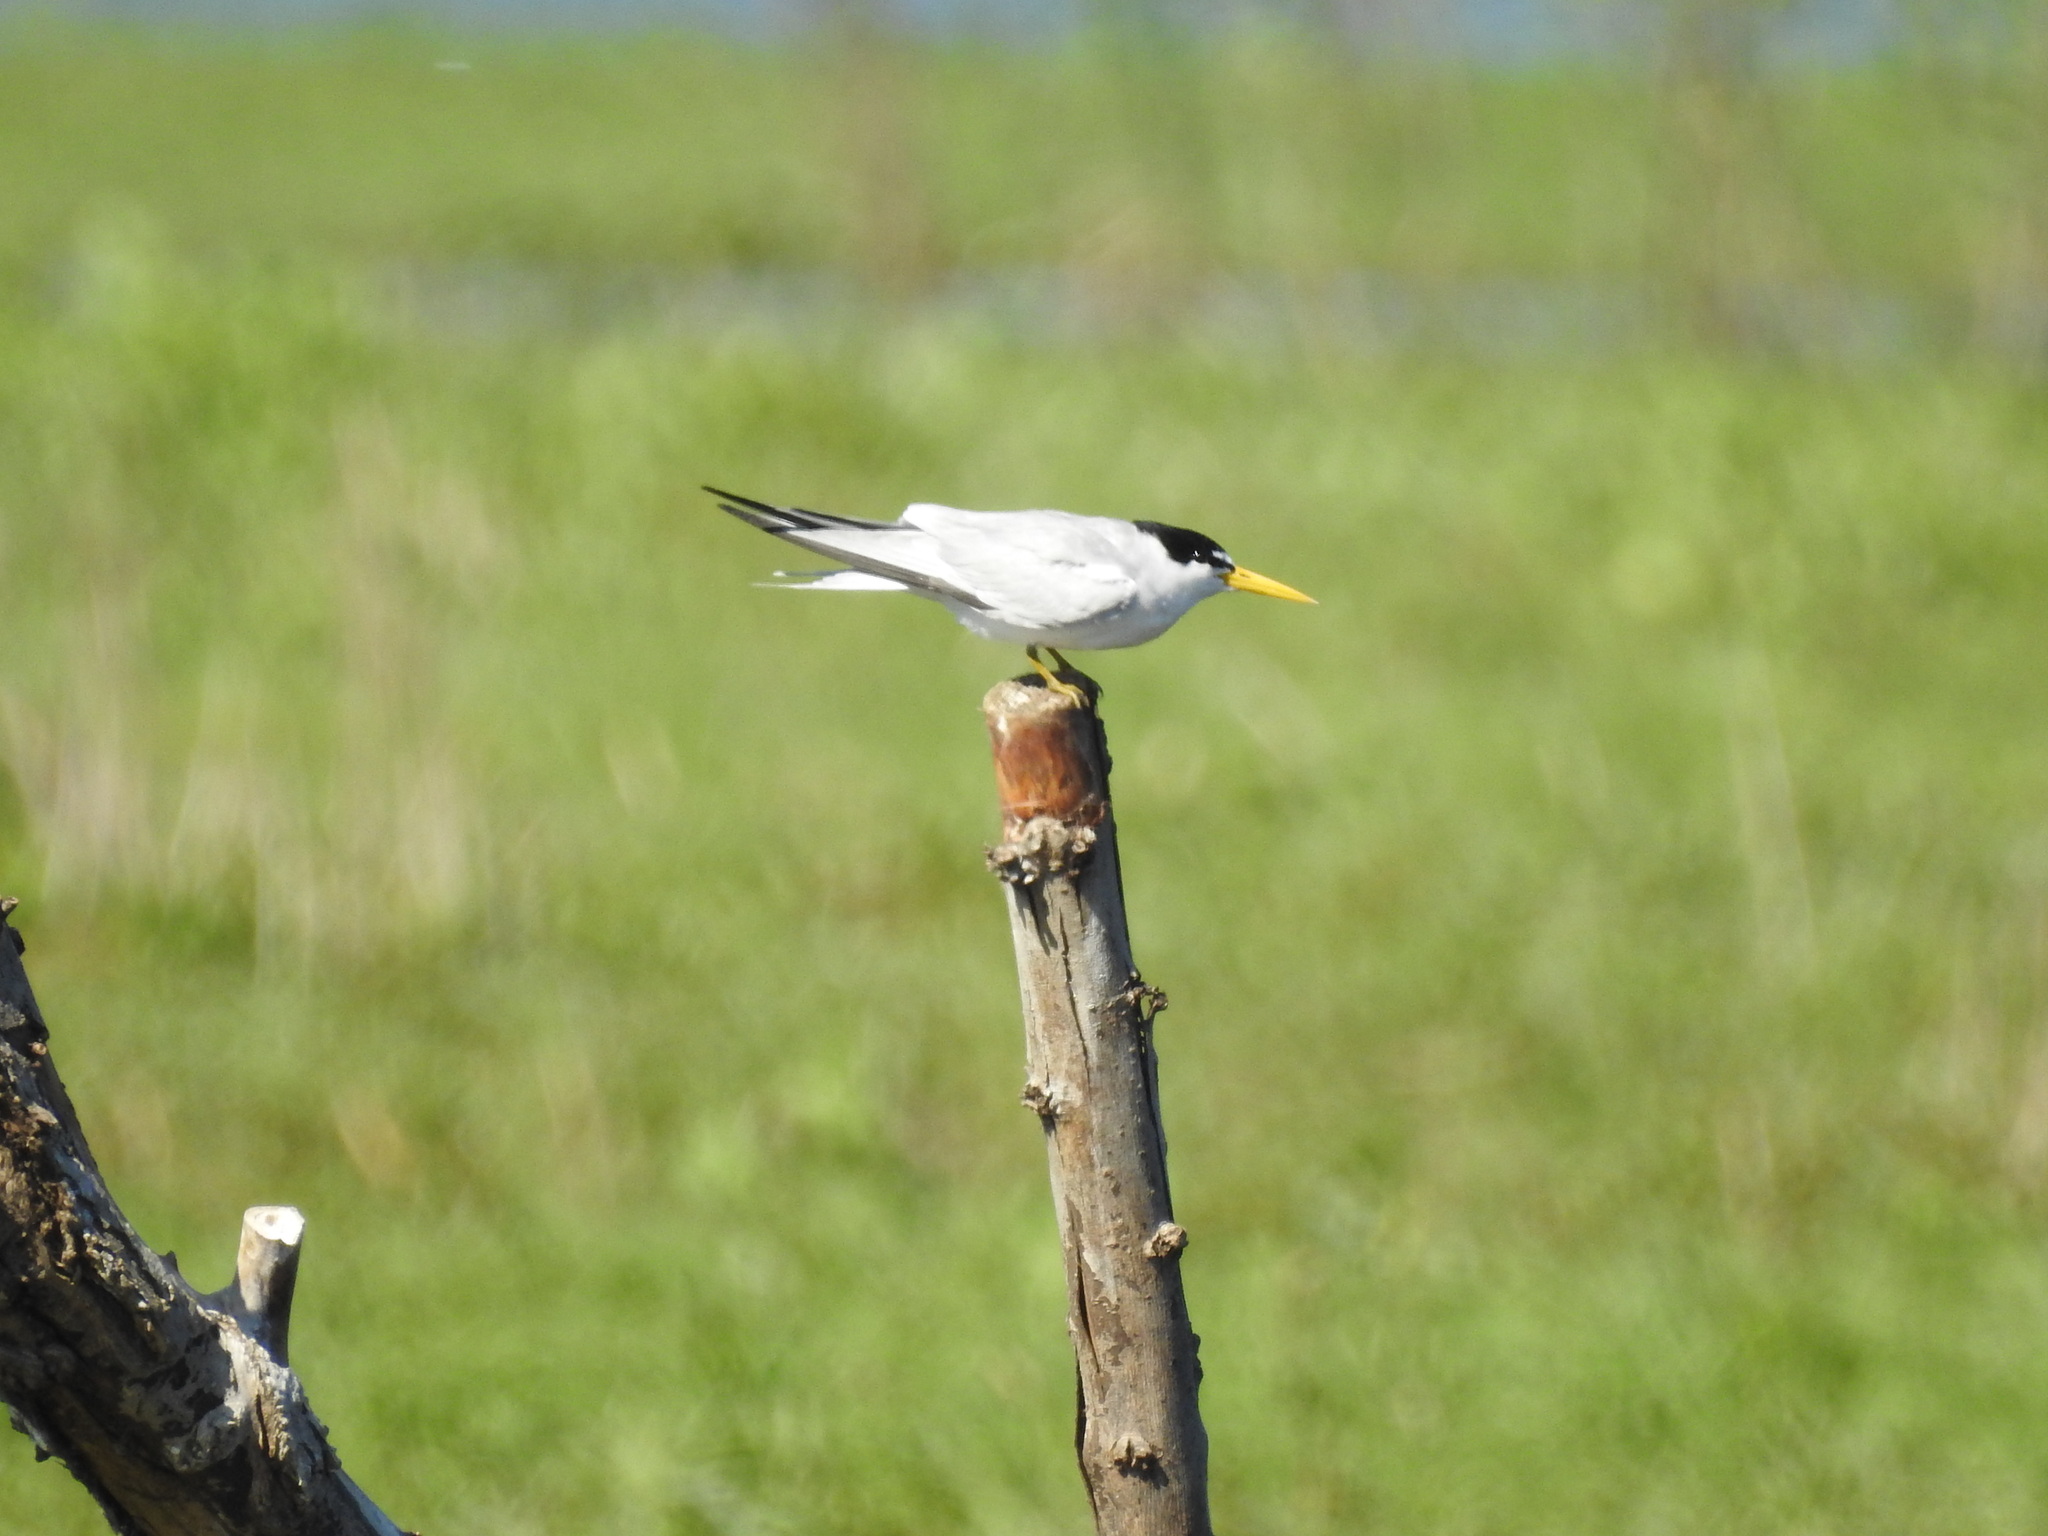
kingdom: Animalia
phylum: Chordata
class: Aves
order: Charadriiformes
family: Laridae
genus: Sternula
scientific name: Sternula superciliaris
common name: Yellow-billed tern
